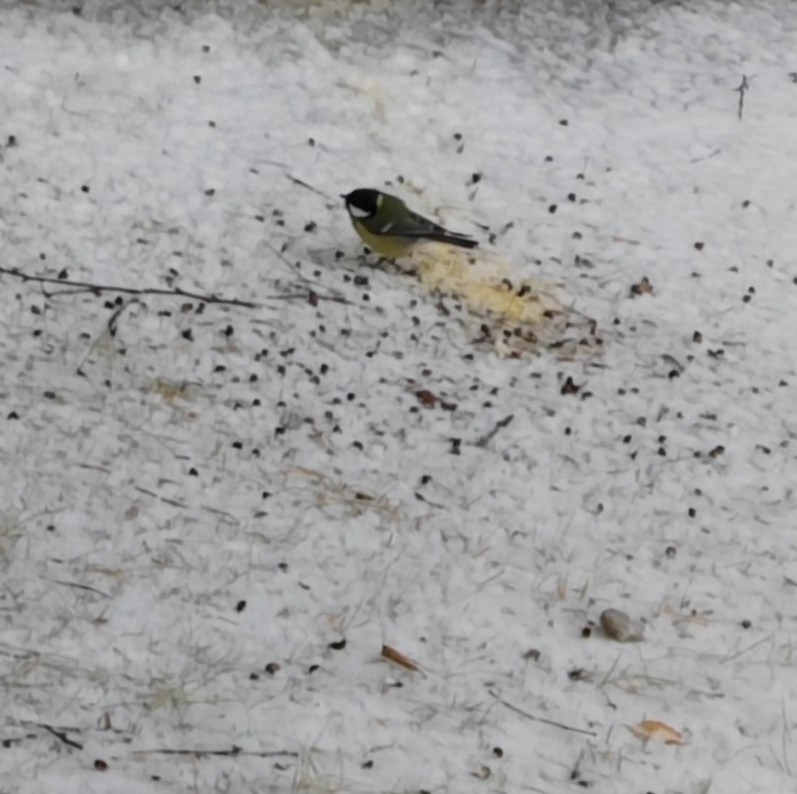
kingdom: Animalia
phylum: Chordata
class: Aves
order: Passeriformes
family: Paridae
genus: Parus
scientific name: Parus major
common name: Great tit
